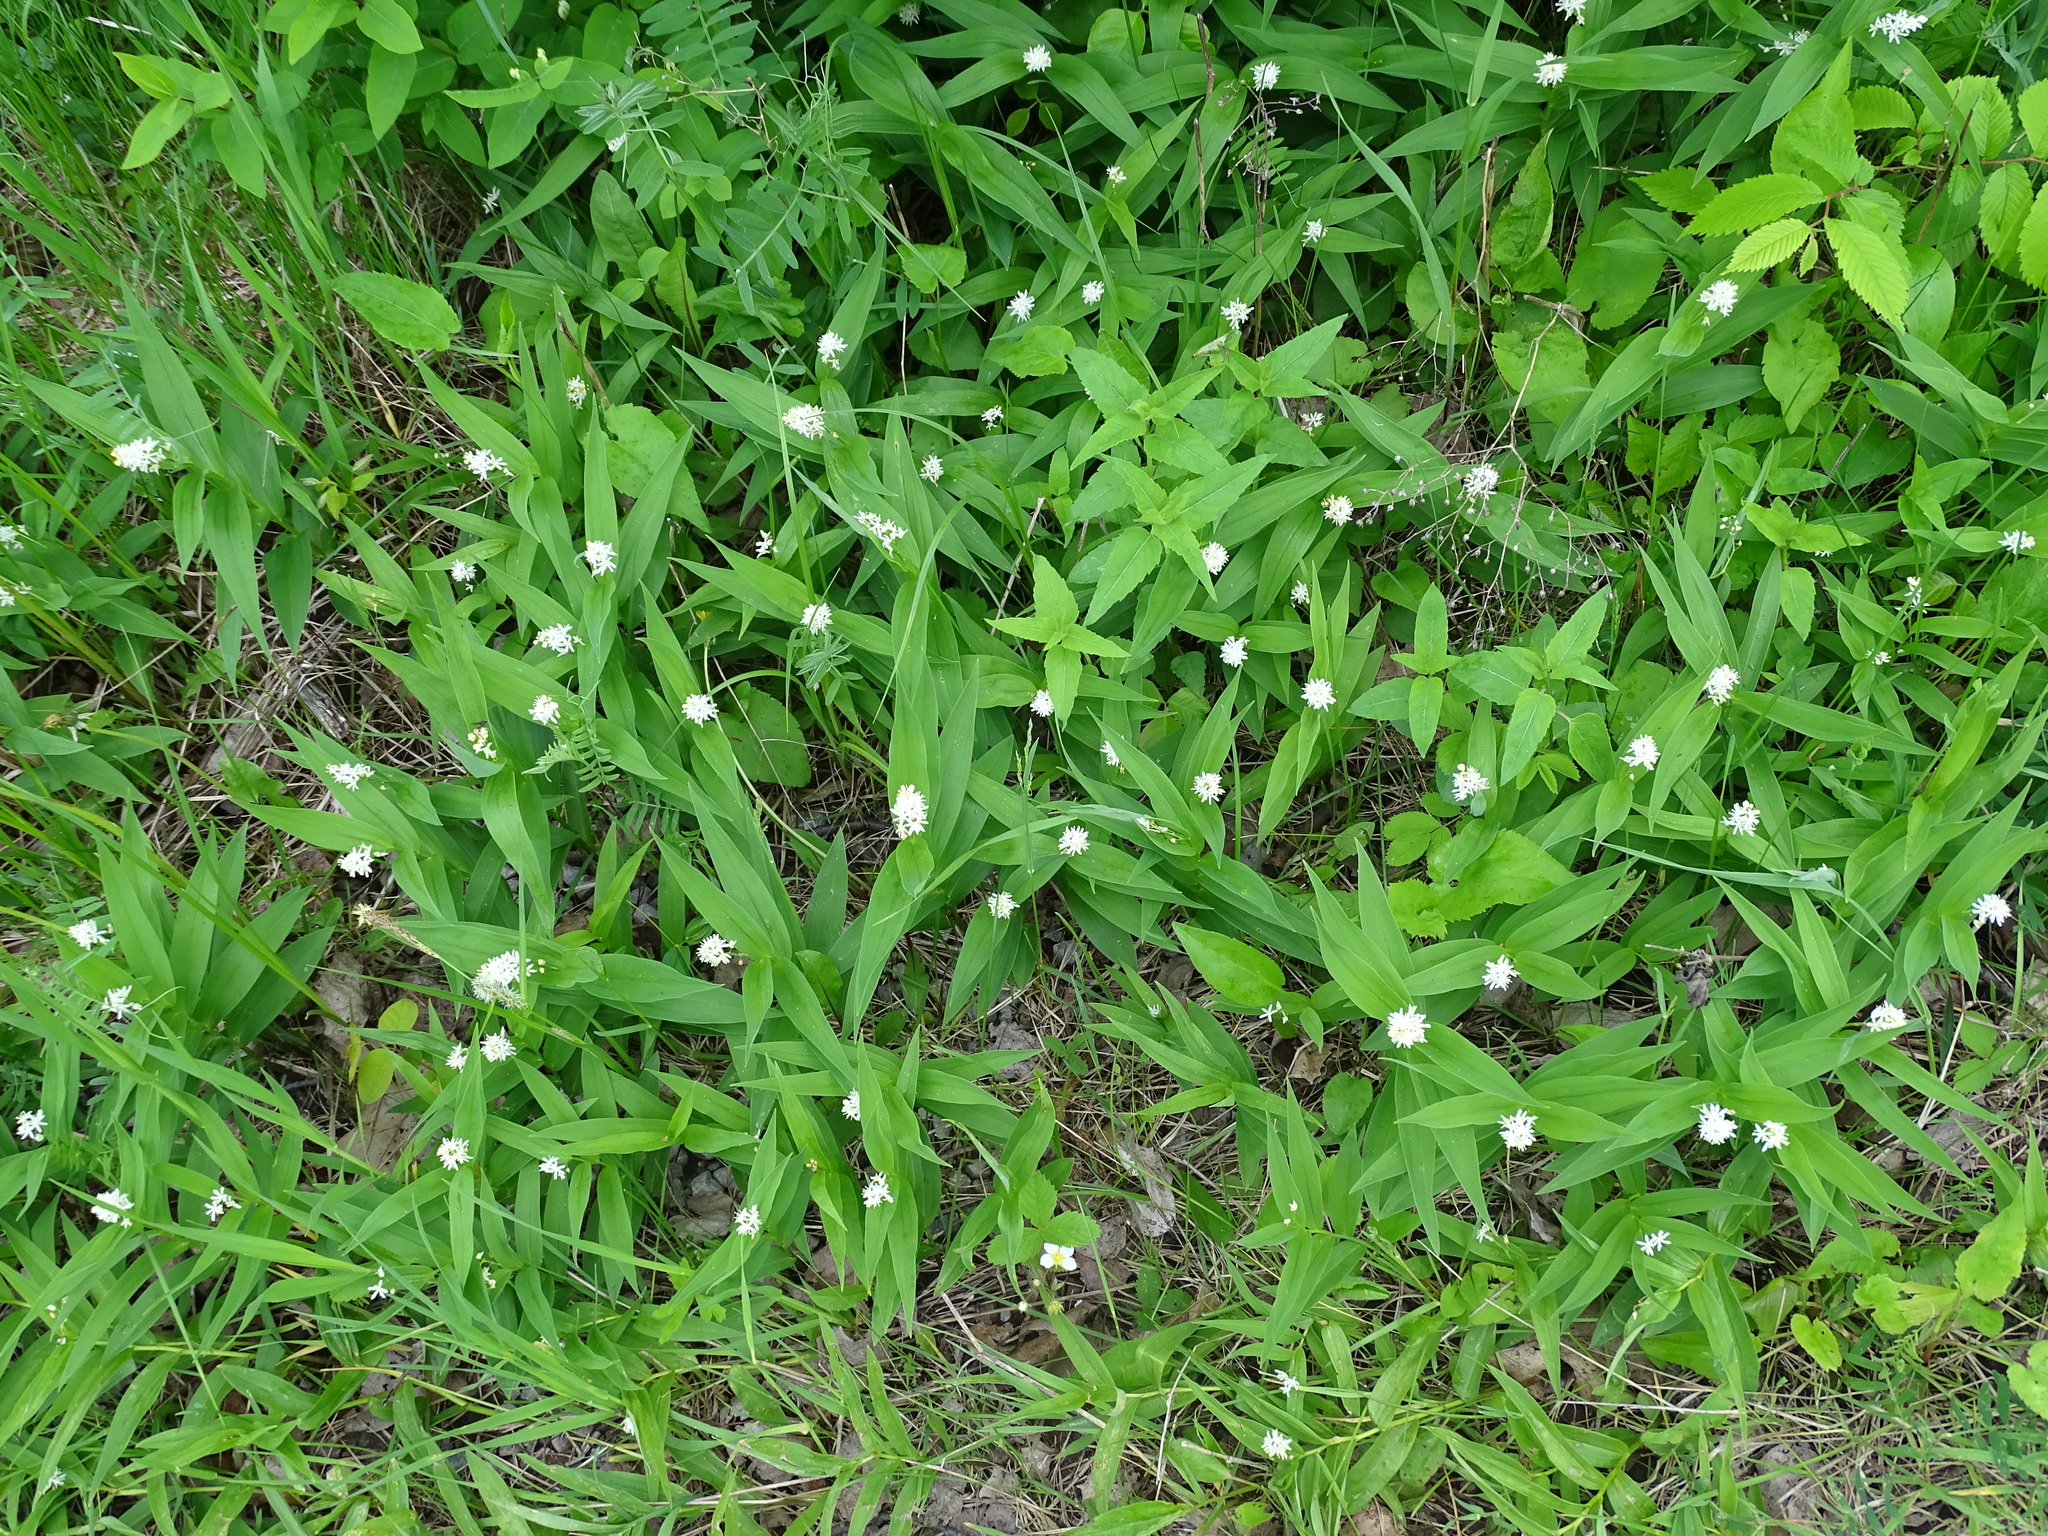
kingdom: Plantae
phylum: Tracheophyta
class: Liliopsida
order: Asparagales
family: Asparagaceae
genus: Maianthemum
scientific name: Maianthemum stellatum
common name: Little false solomon's seal
